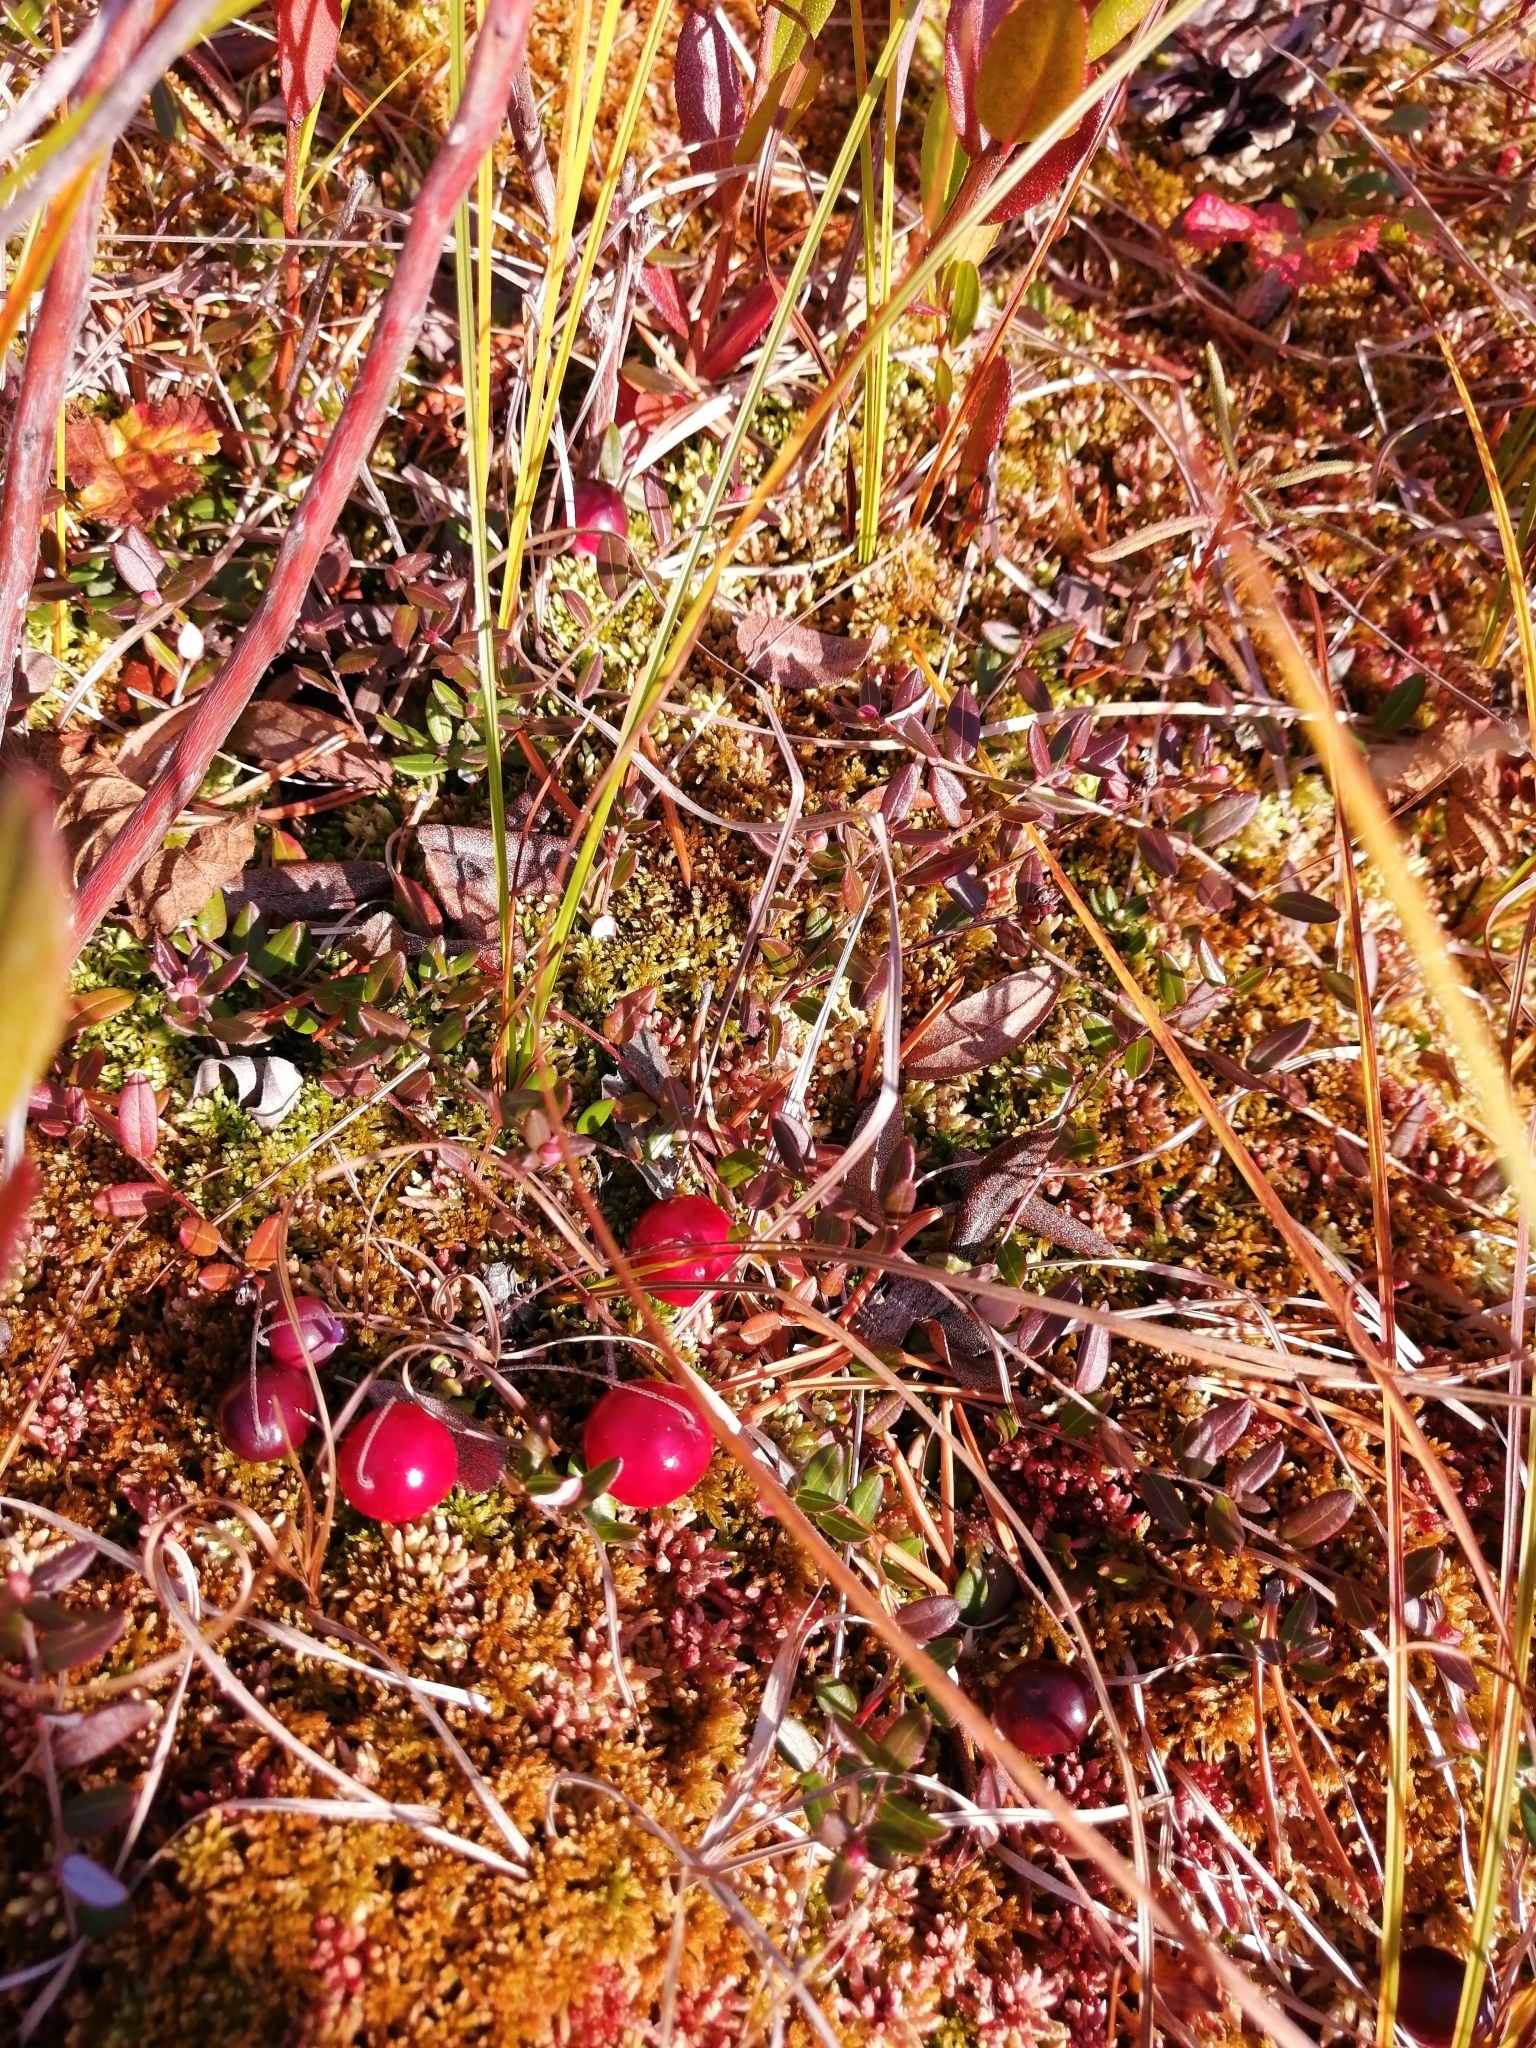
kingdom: Plantae
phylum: Tracheophyta
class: Magnoliopsida
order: Ericales
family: Ericaceae
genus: Vaccinium
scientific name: Vaccinium oxycoccos
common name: Cranberry
